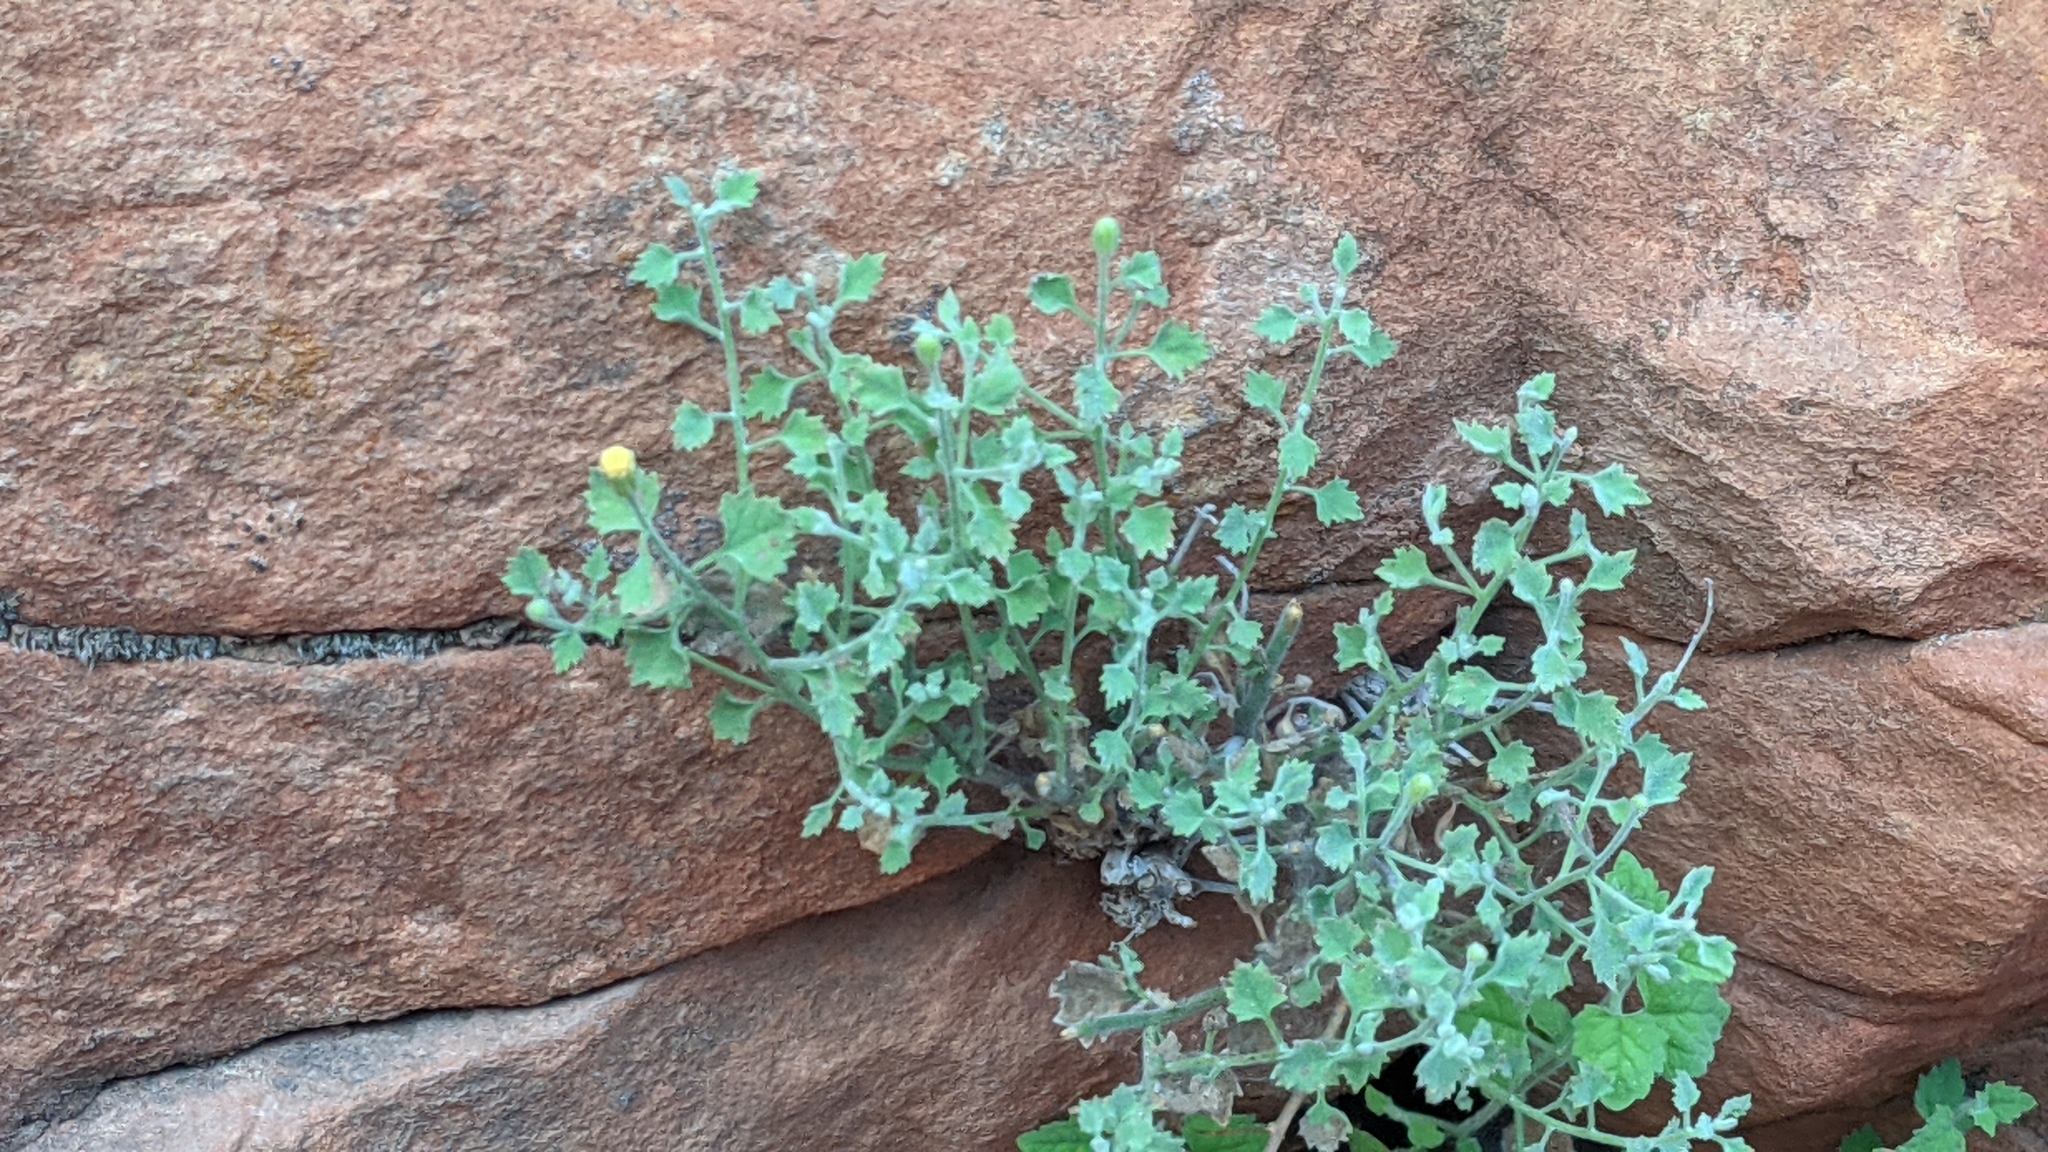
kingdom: Plantae
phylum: Tracheophyta
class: Magnoliopsida
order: Asterales
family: Asteraceae
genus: Laphamia
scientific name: Laphamia sanchezii
